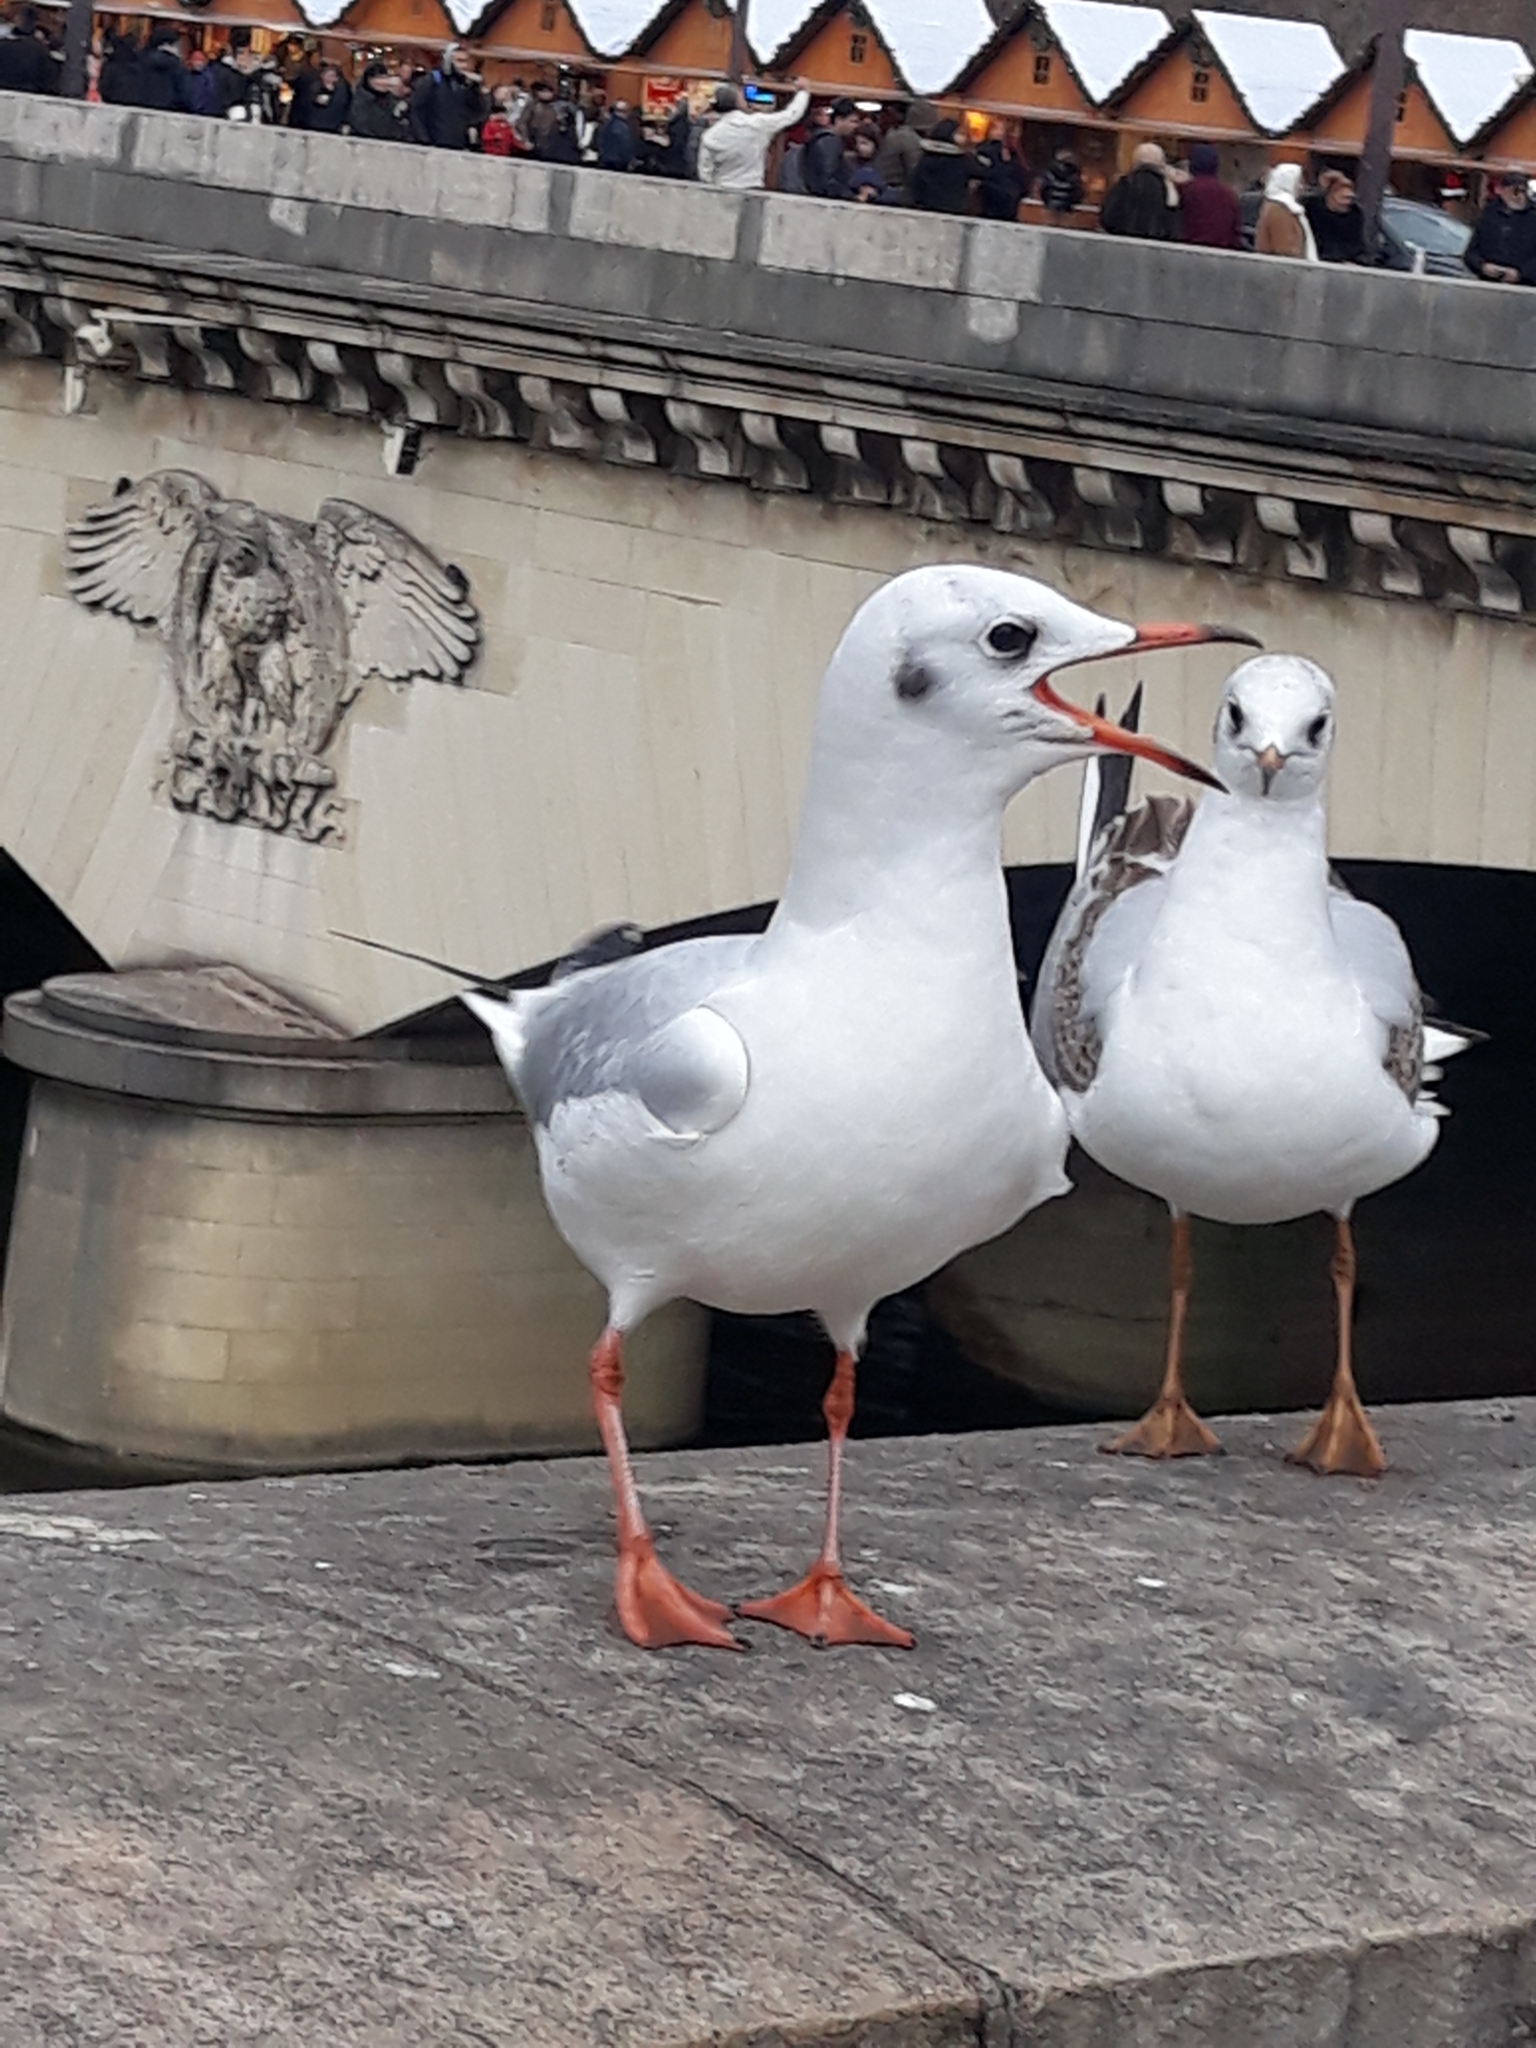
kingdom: Animalia
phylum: Chordata
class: Aves
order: Charadriiformes
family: Laridae
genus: Chroicocephalus
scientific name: Chroicocephalus ridibundus
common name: Black-headed gull
